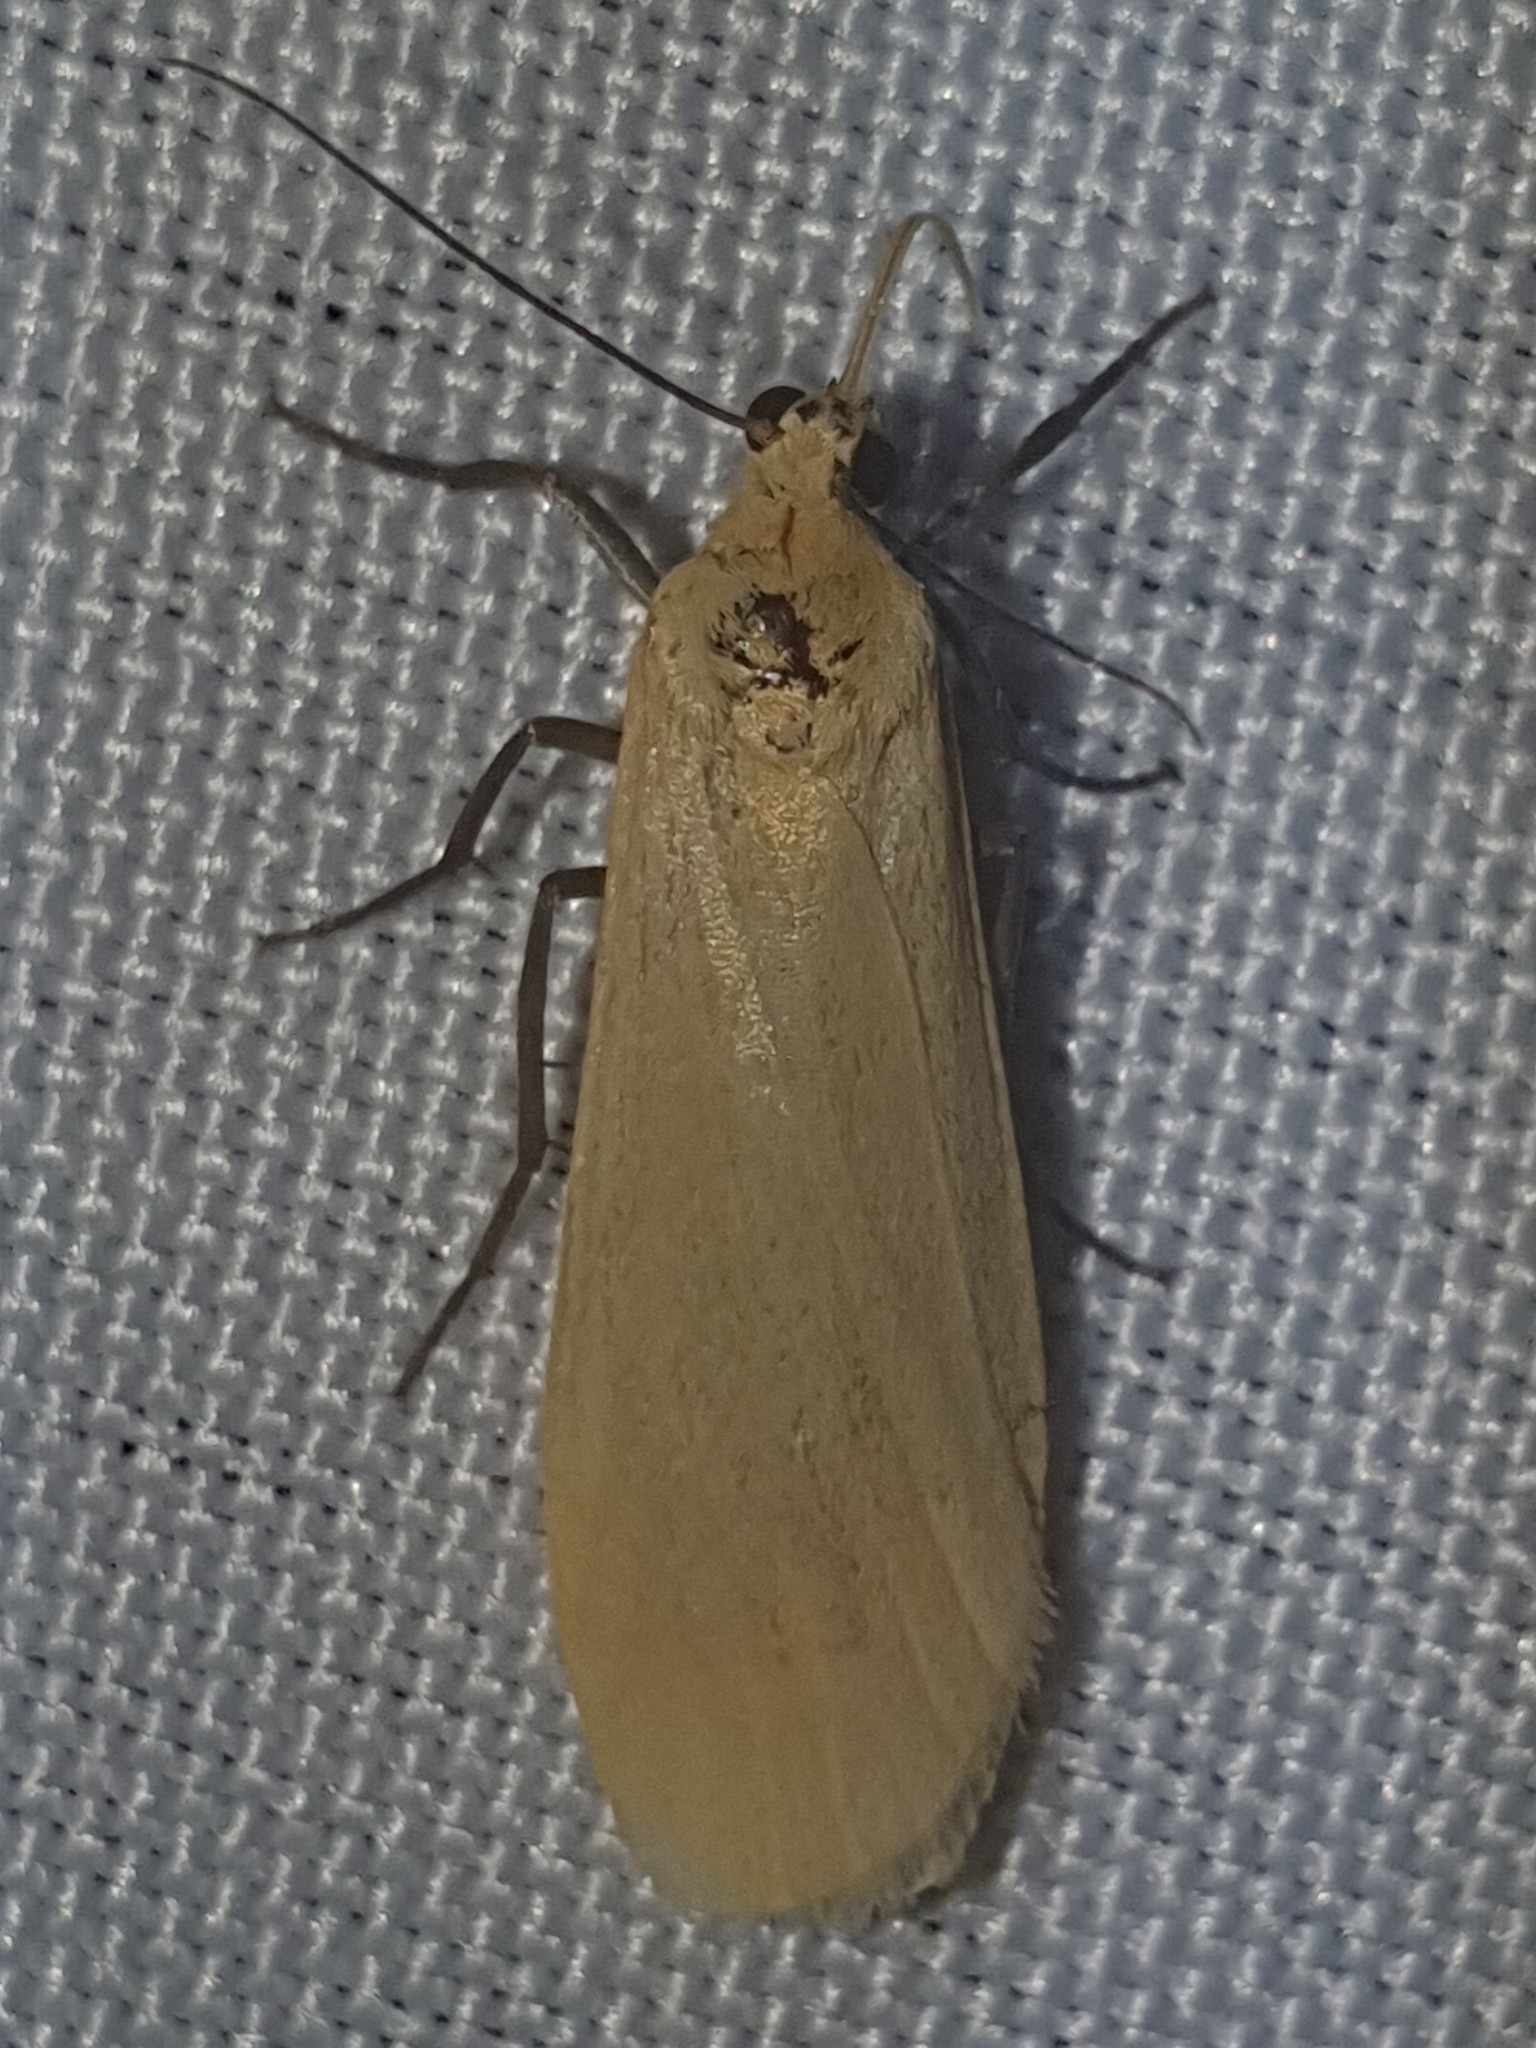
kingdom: Animalia
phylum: Arthropoda
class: Insecta
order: Lepidoptera
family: Erebidae
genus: Wittia
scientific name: Wittia sororcula
